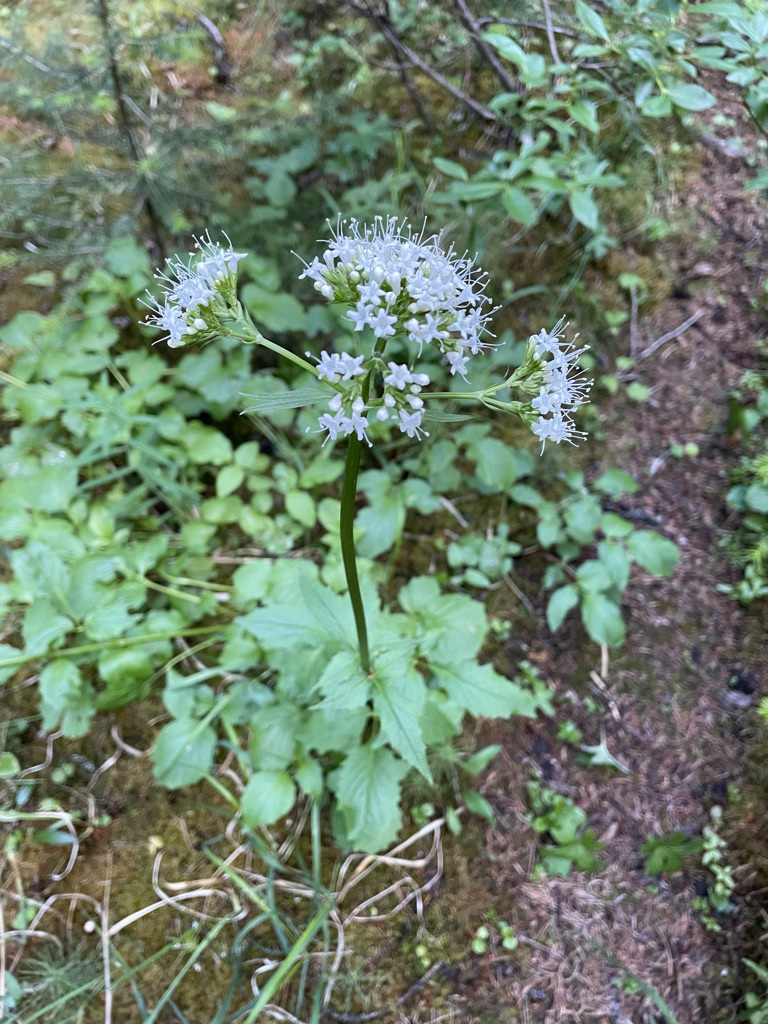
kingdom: Plantae
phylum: Tracheophyta
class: Magnoliopsida
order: Dipsacales
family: Caprifoliaceae
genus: Valeriana
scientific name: Valeriana sitchensis
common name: Pacific valerian
